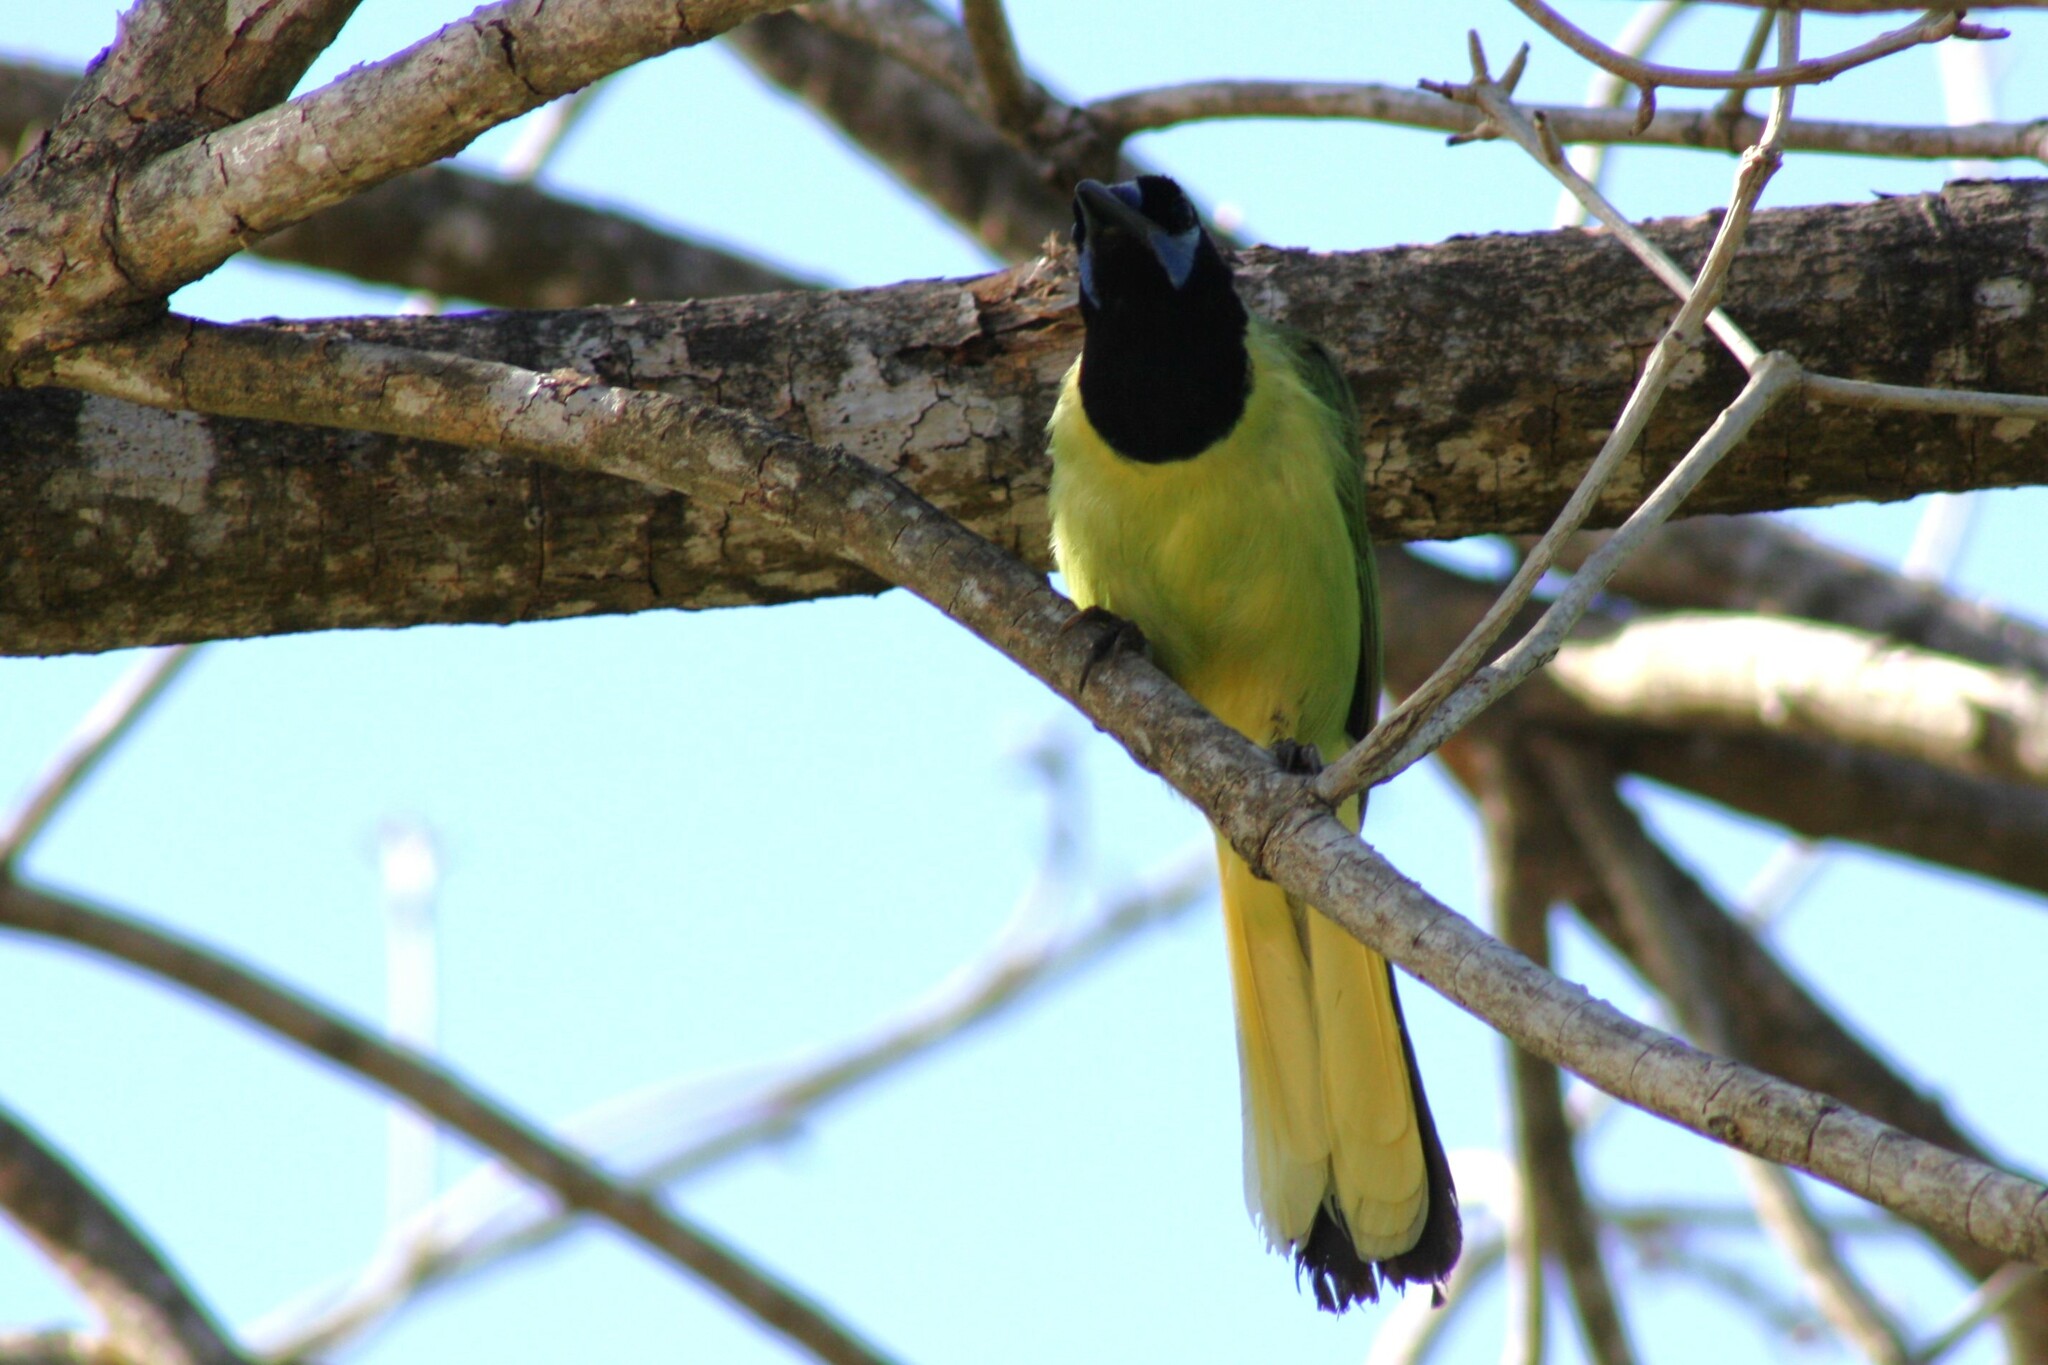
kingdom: Animalia
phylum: Chordata
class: Aves
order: Passeriformes
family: Corvidae
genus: Cyanocorax
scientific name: Cyanocorax yncas
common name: Green jay
